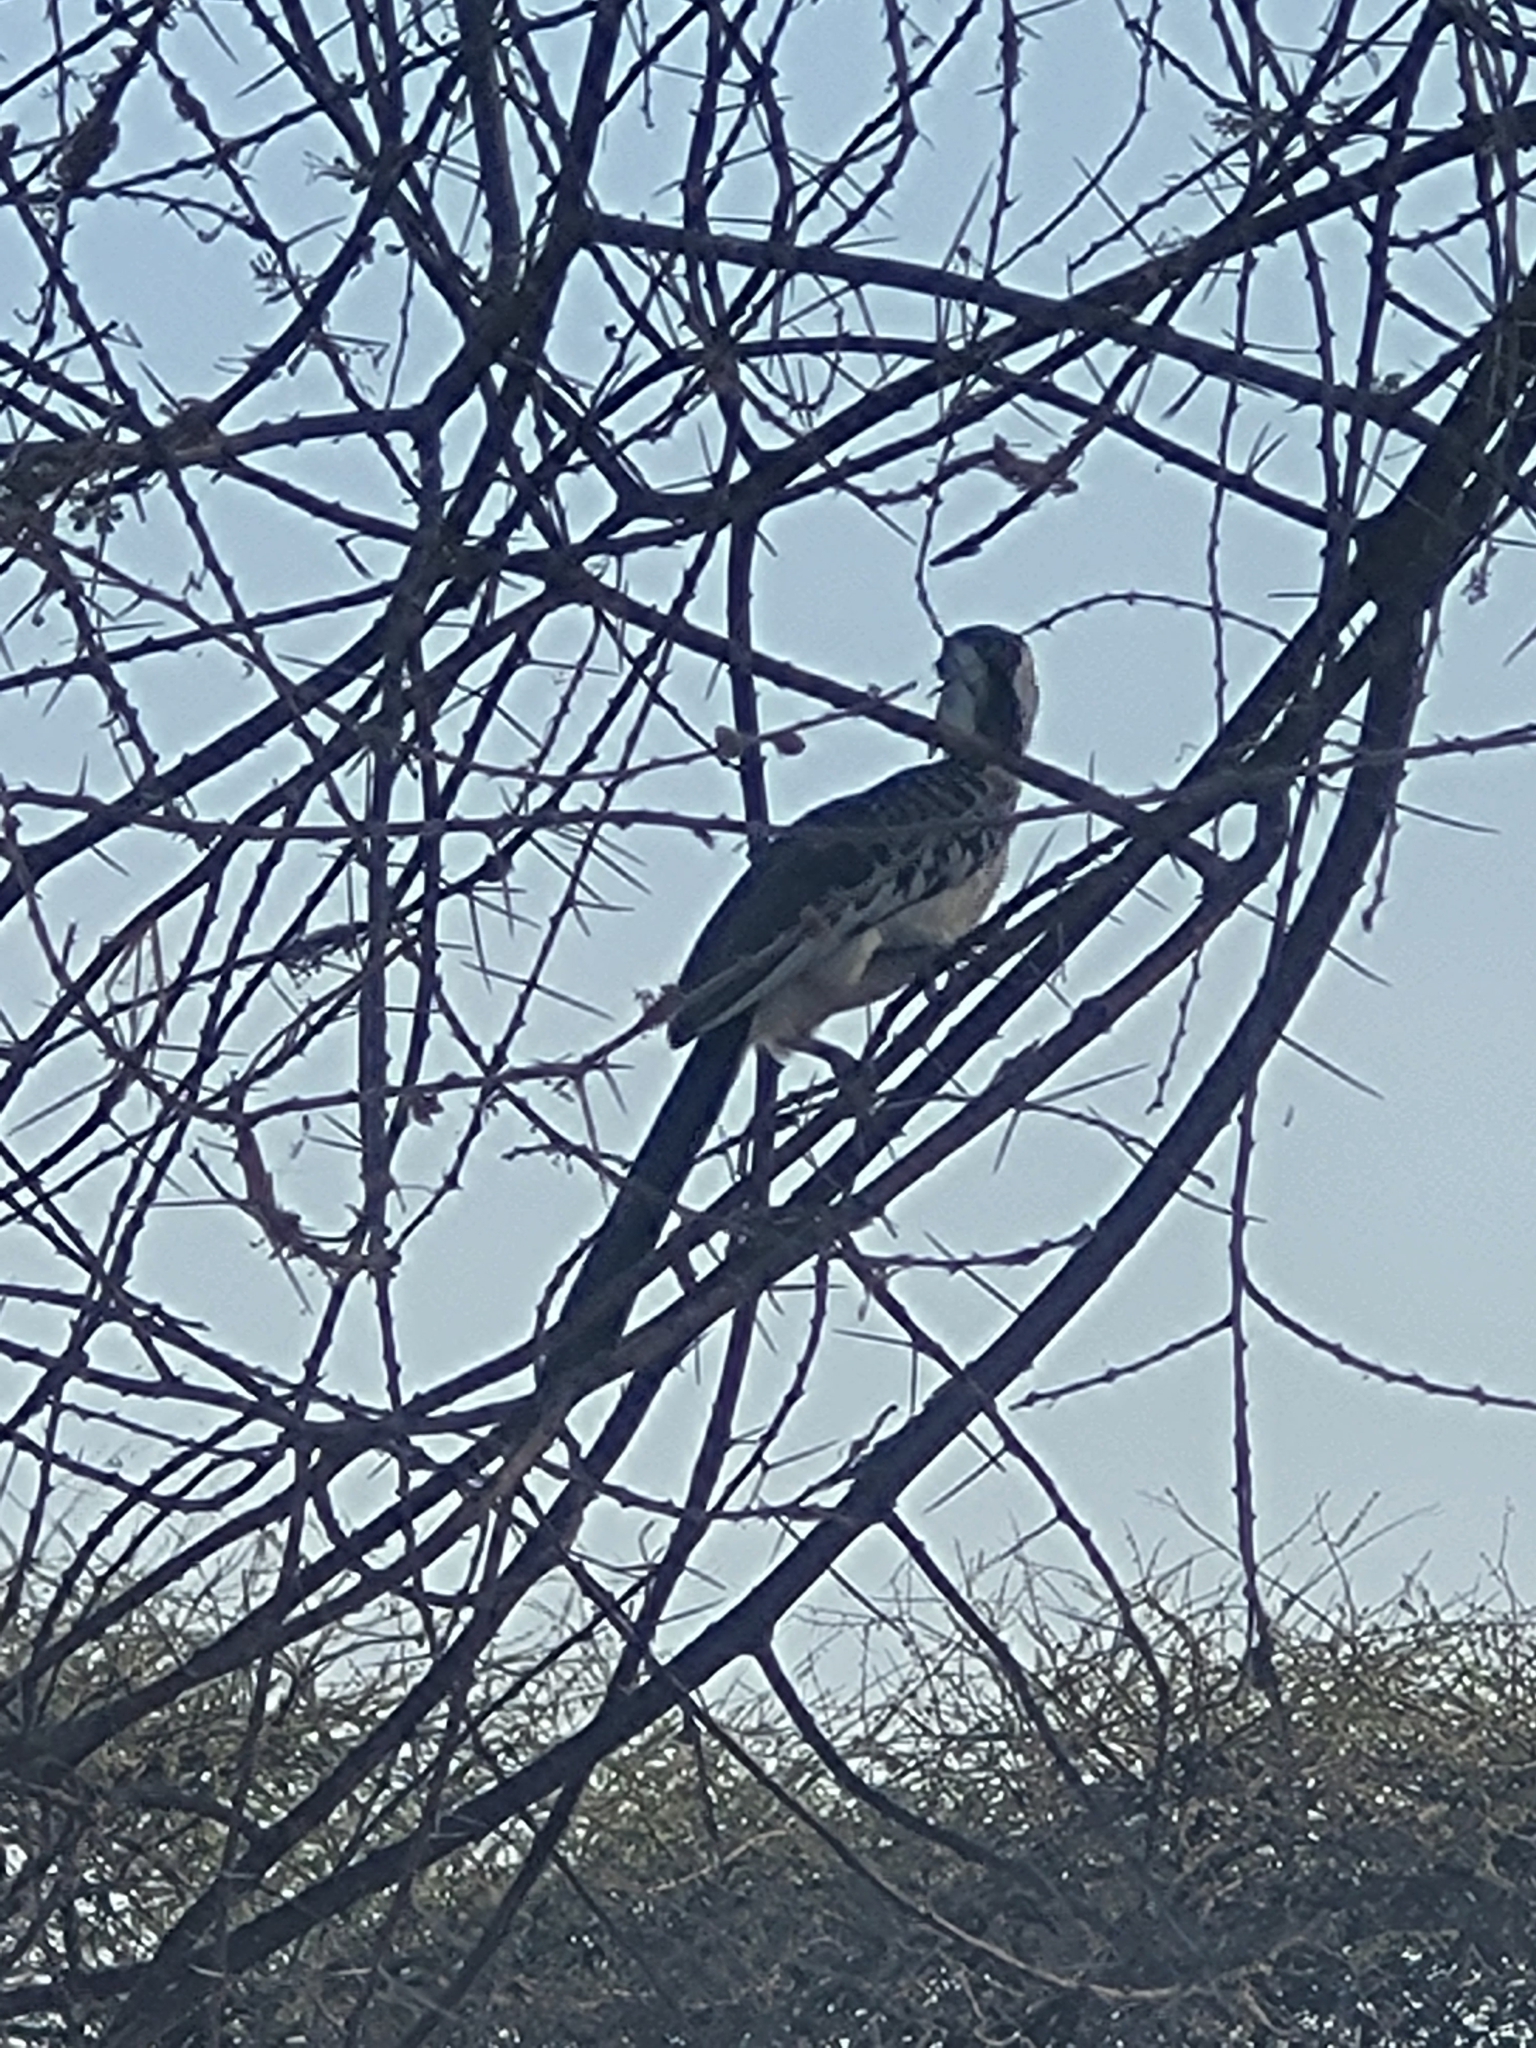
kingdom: Animalia
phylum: Chordata
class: Aves
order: Bucerotiformes
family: Bucerotidae
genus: Tockus
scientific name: Tockus erythrorhynchus
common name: Northern red-billed hornbill
